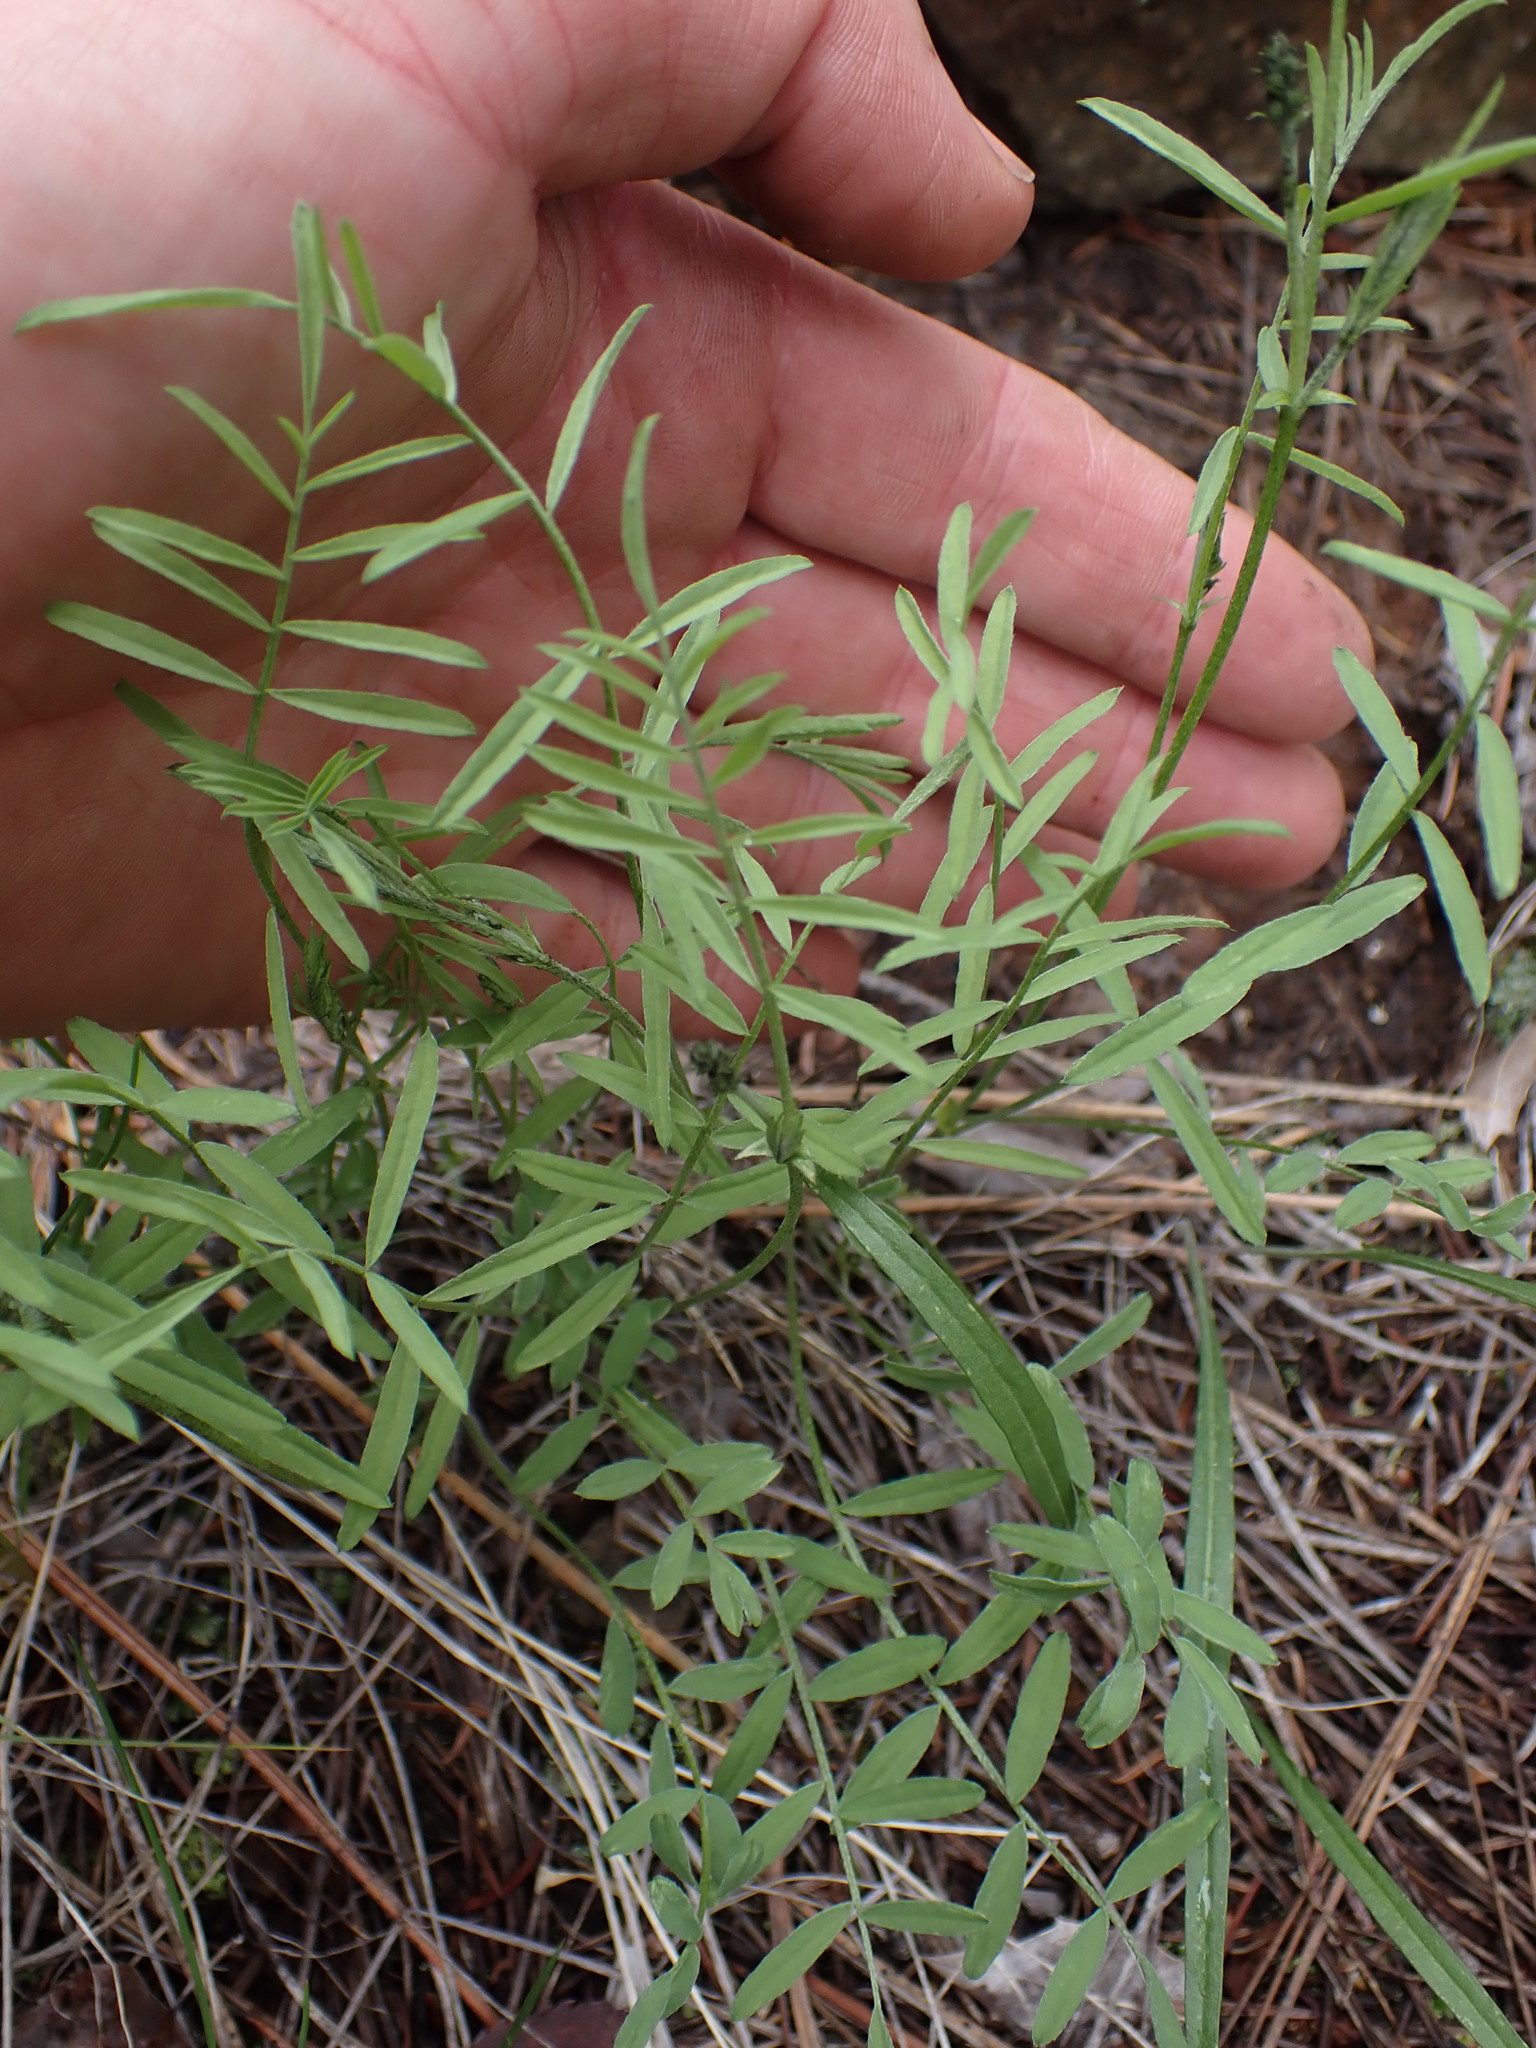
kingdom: Plantae
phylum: Tracheophyta
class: Magnoliopsida
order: Fabales
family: Fabaceae
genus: Astragalus
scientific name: Astragalus miser
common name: Timber milkvetch
